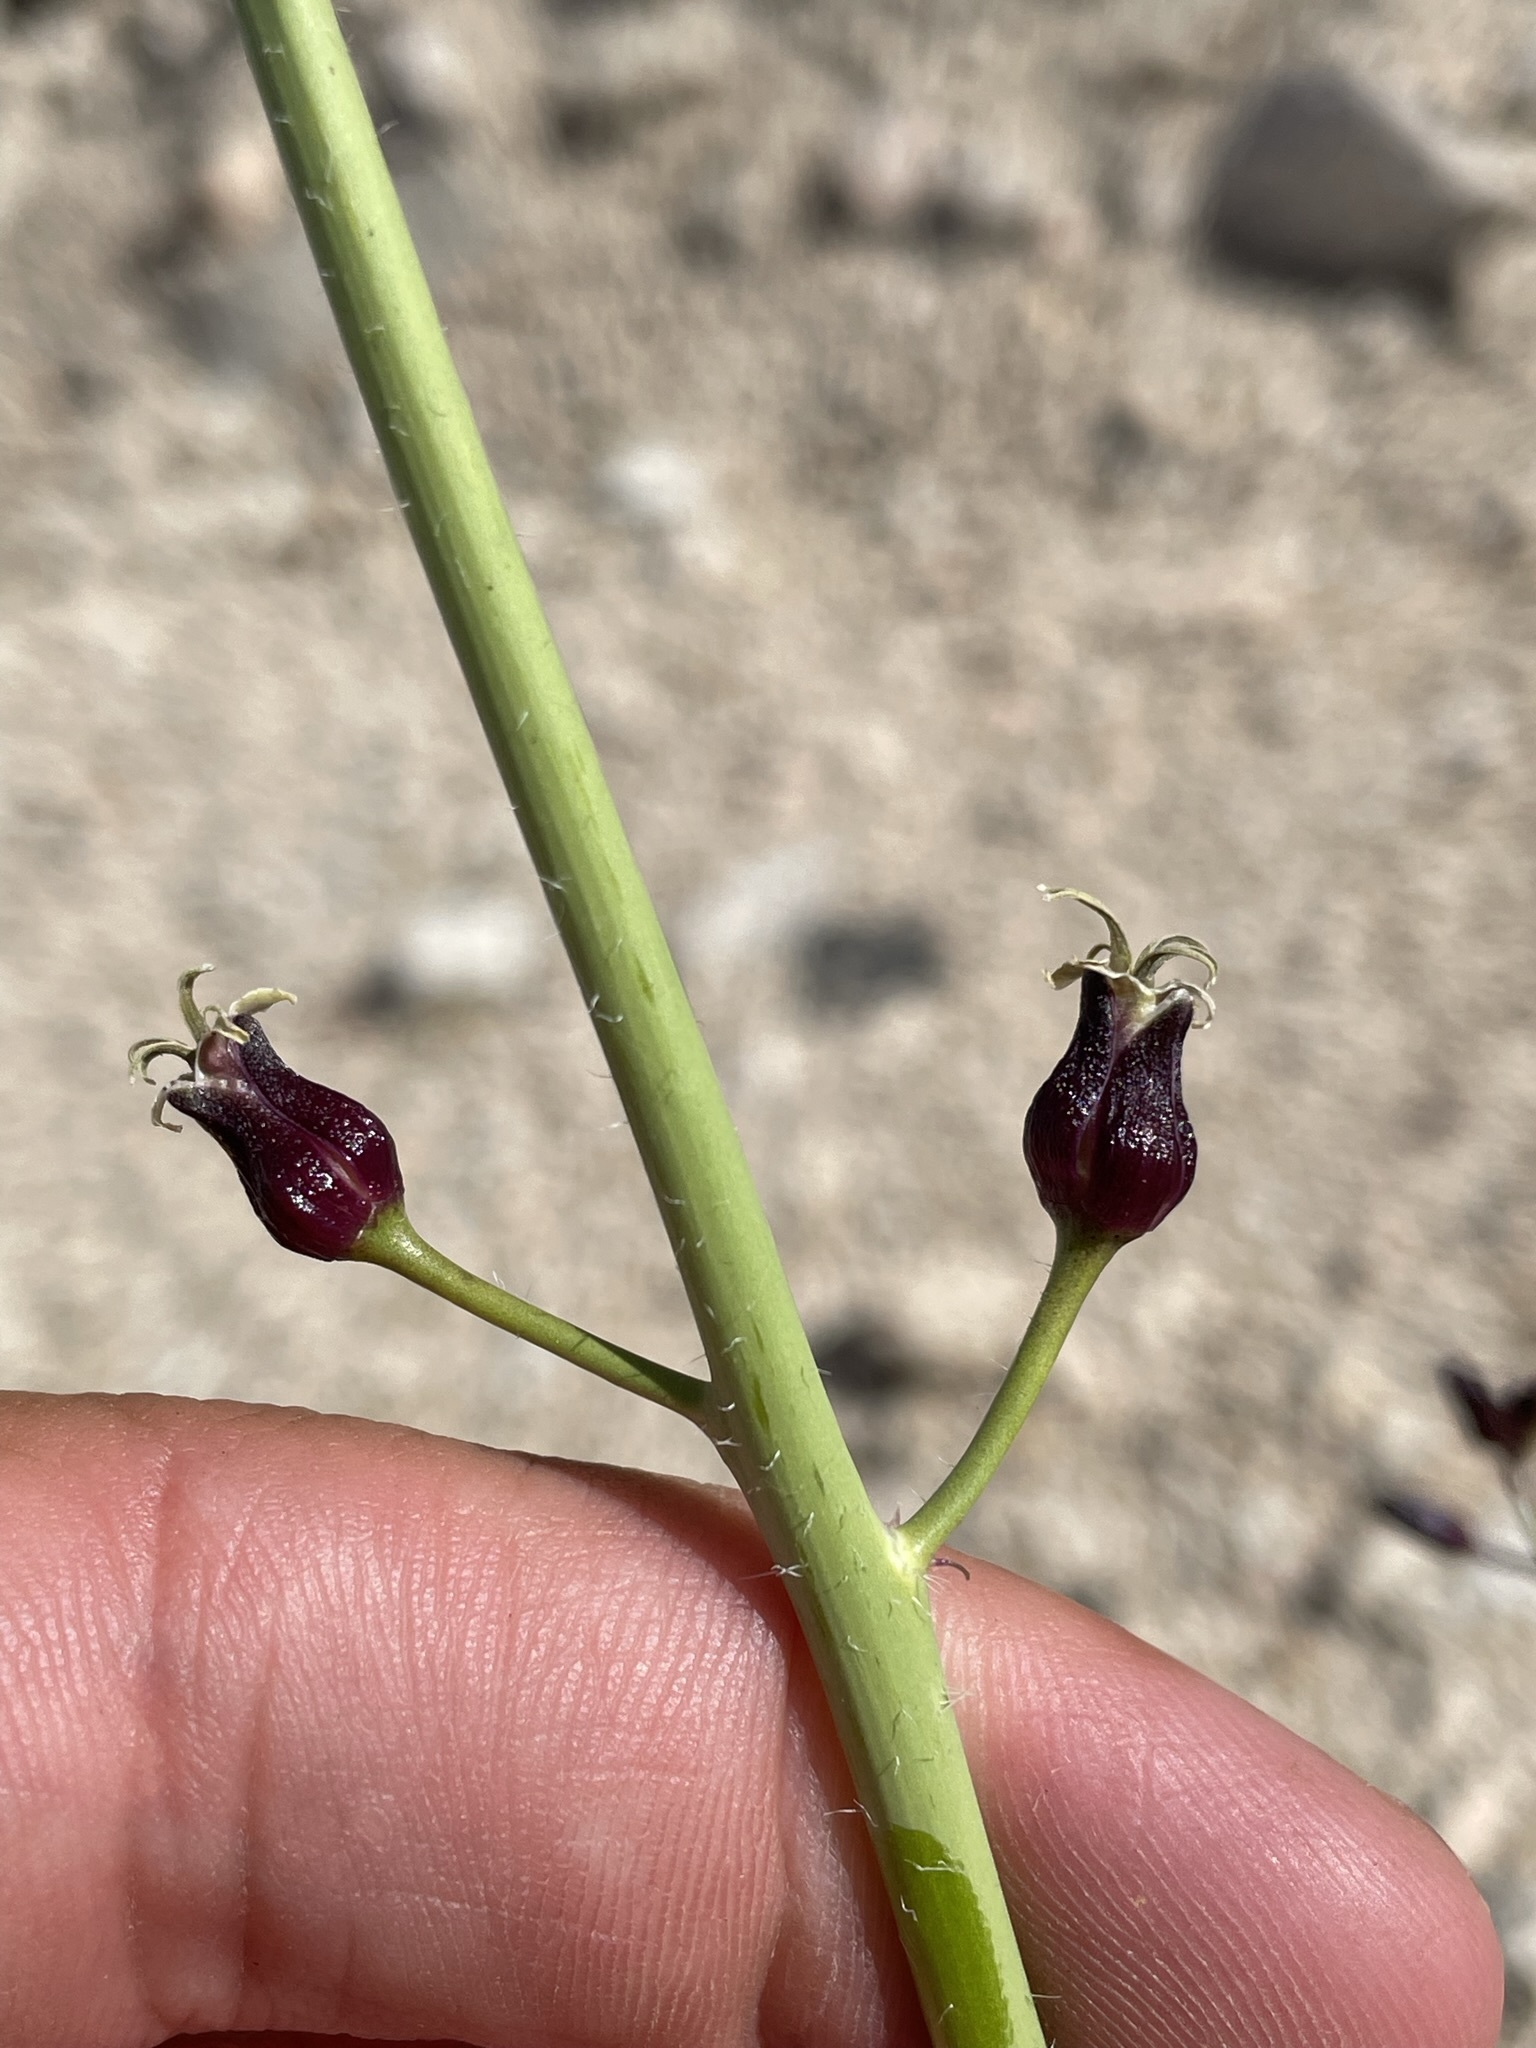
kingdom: Plantae
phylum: Tracheophyta
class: Magnoliopsida
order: Brassicales
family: Brassicaceae
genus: Streptanthus
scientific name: Streptanthus pilosus
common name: Chocolate drops
